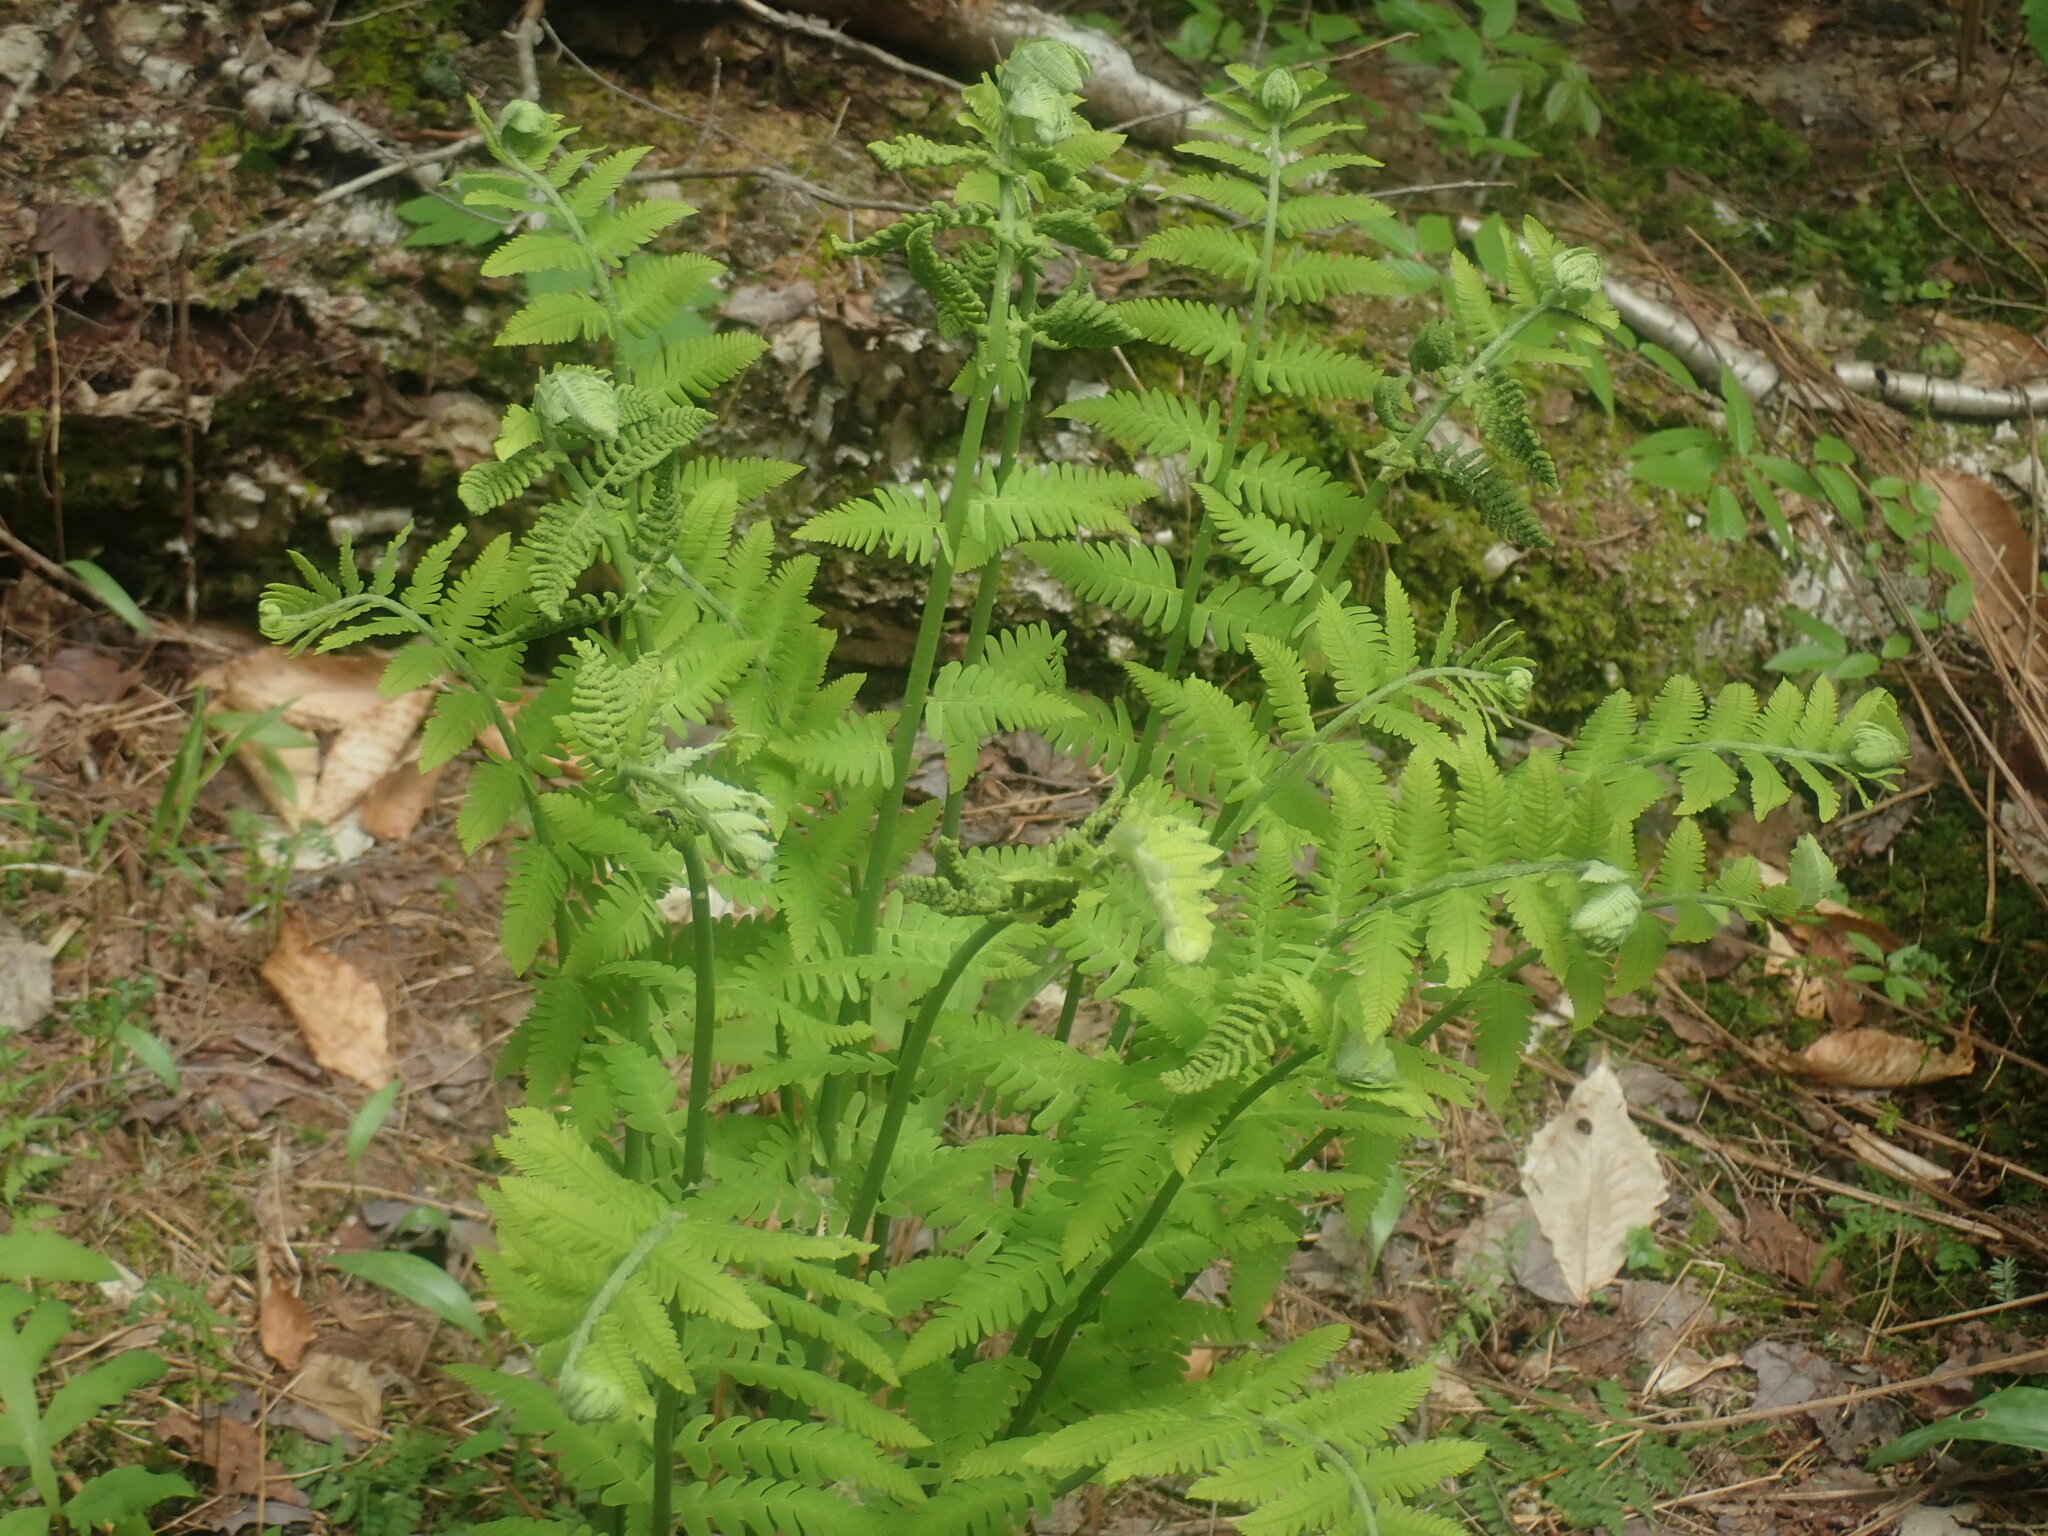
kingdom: Plantae
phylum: Tracheophyta
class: Polypodiopsida
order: Osmundales
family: Osmundaceae
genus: Claytosmunda
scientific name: Claytosmunda claytoniana
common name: Clayton's fern
